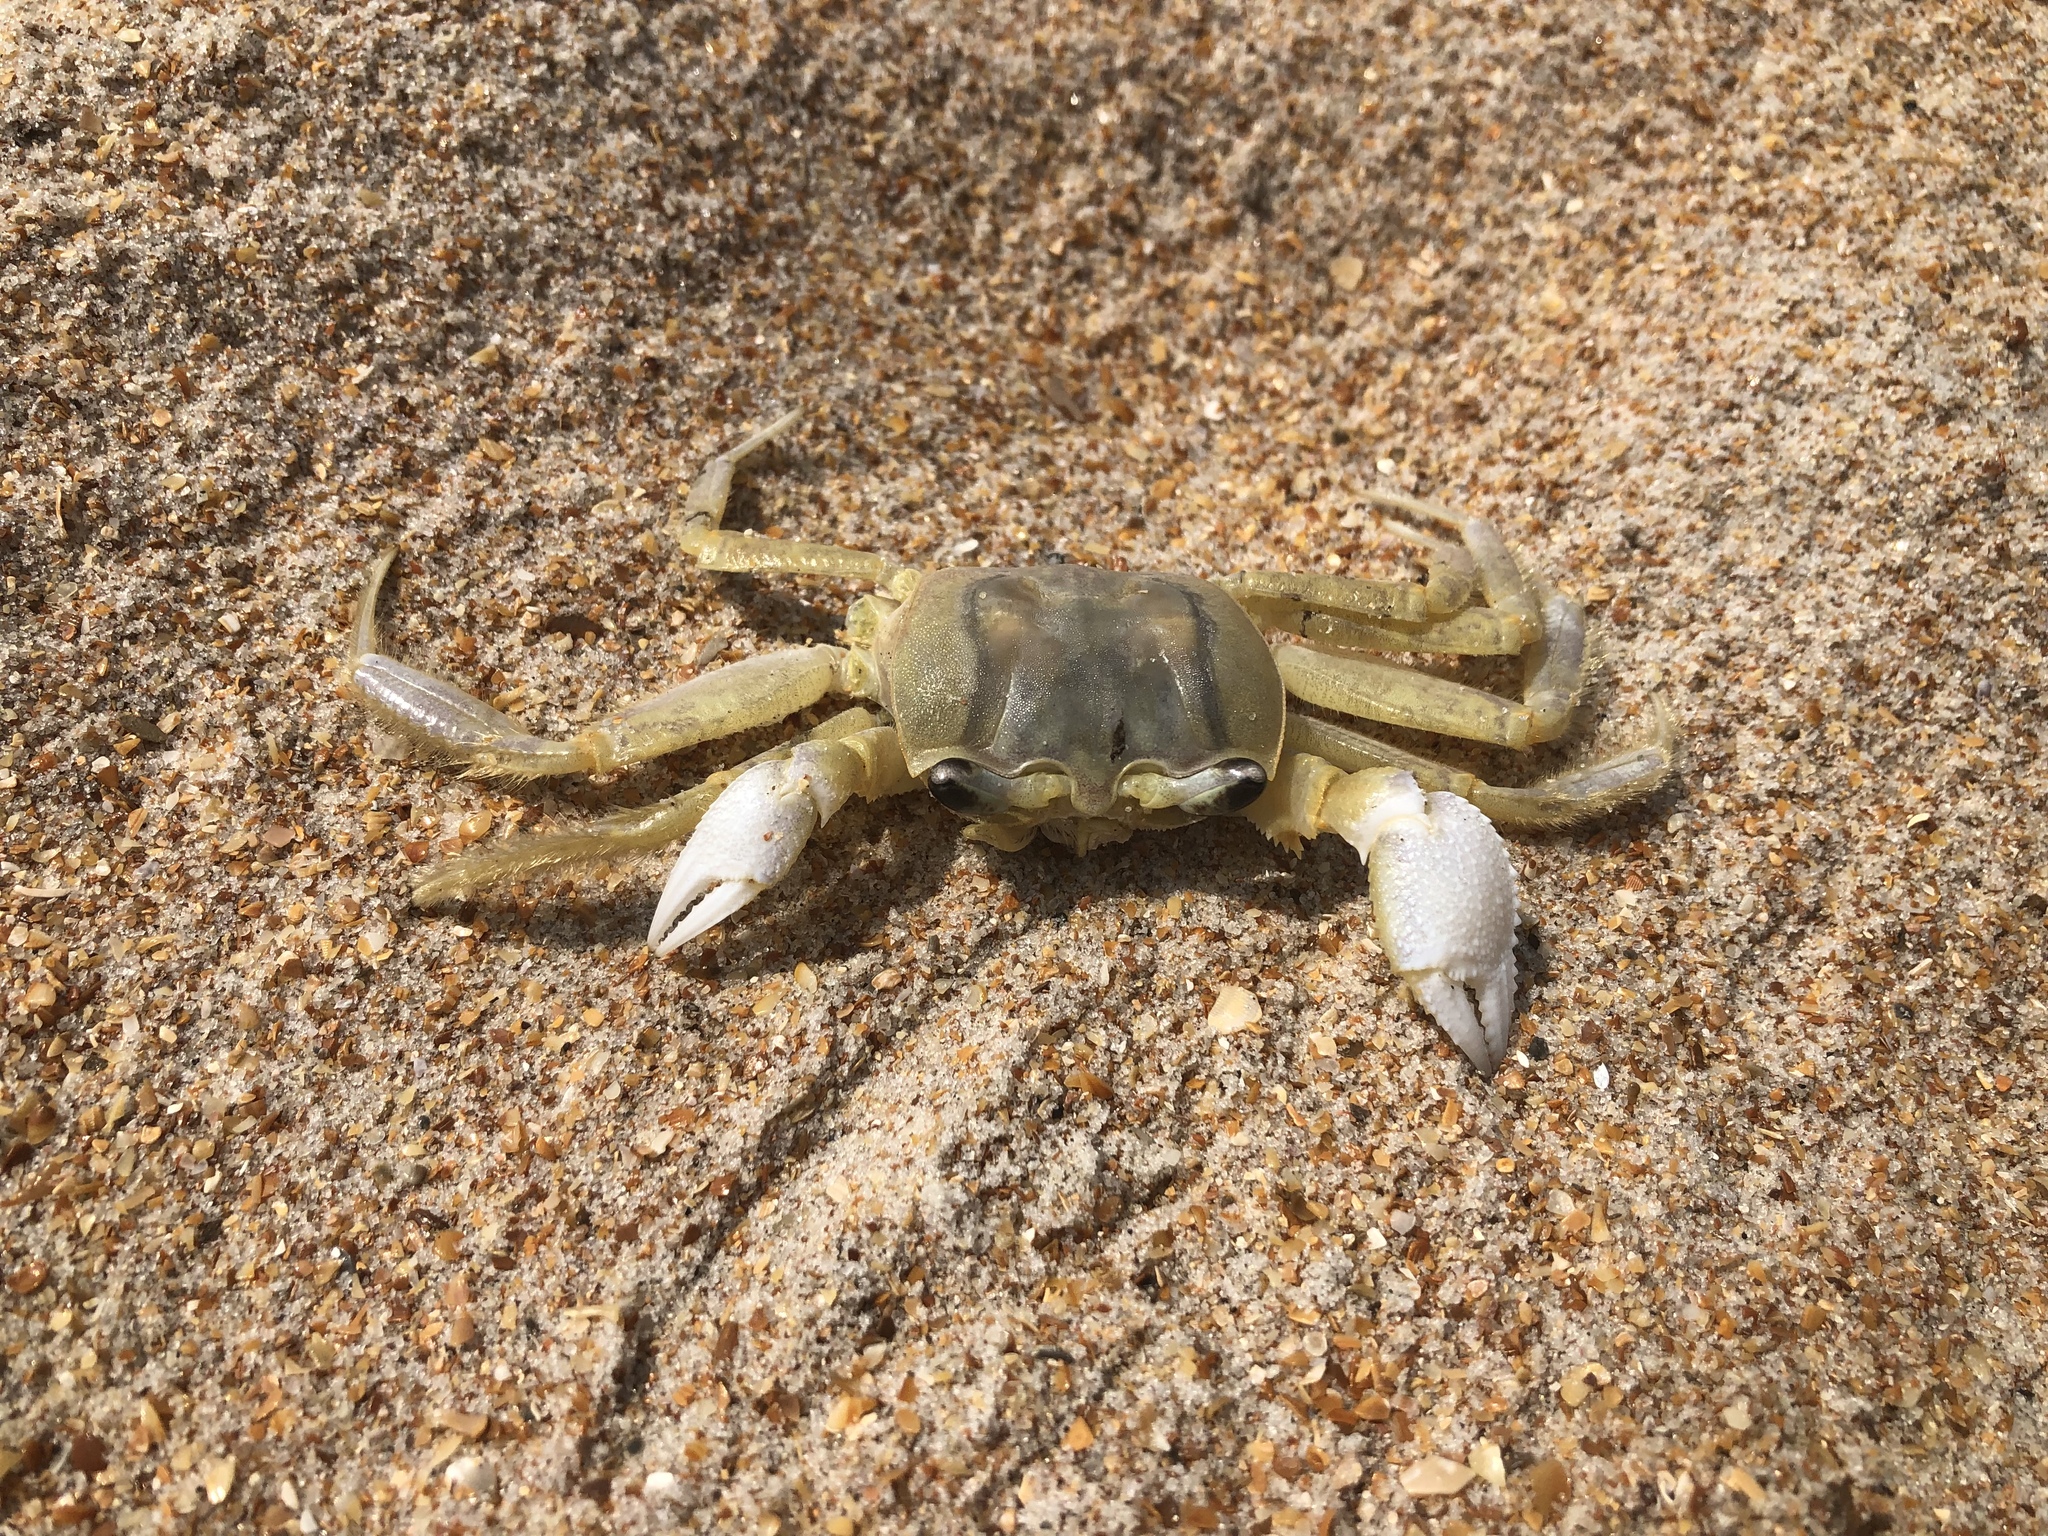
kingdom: Animalia
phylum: Arthropoda
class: Malacostraca
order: Decapoda
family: Ocypodidae
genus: Ocypode
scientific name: Ocypode quadrata
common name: Ghost crab
